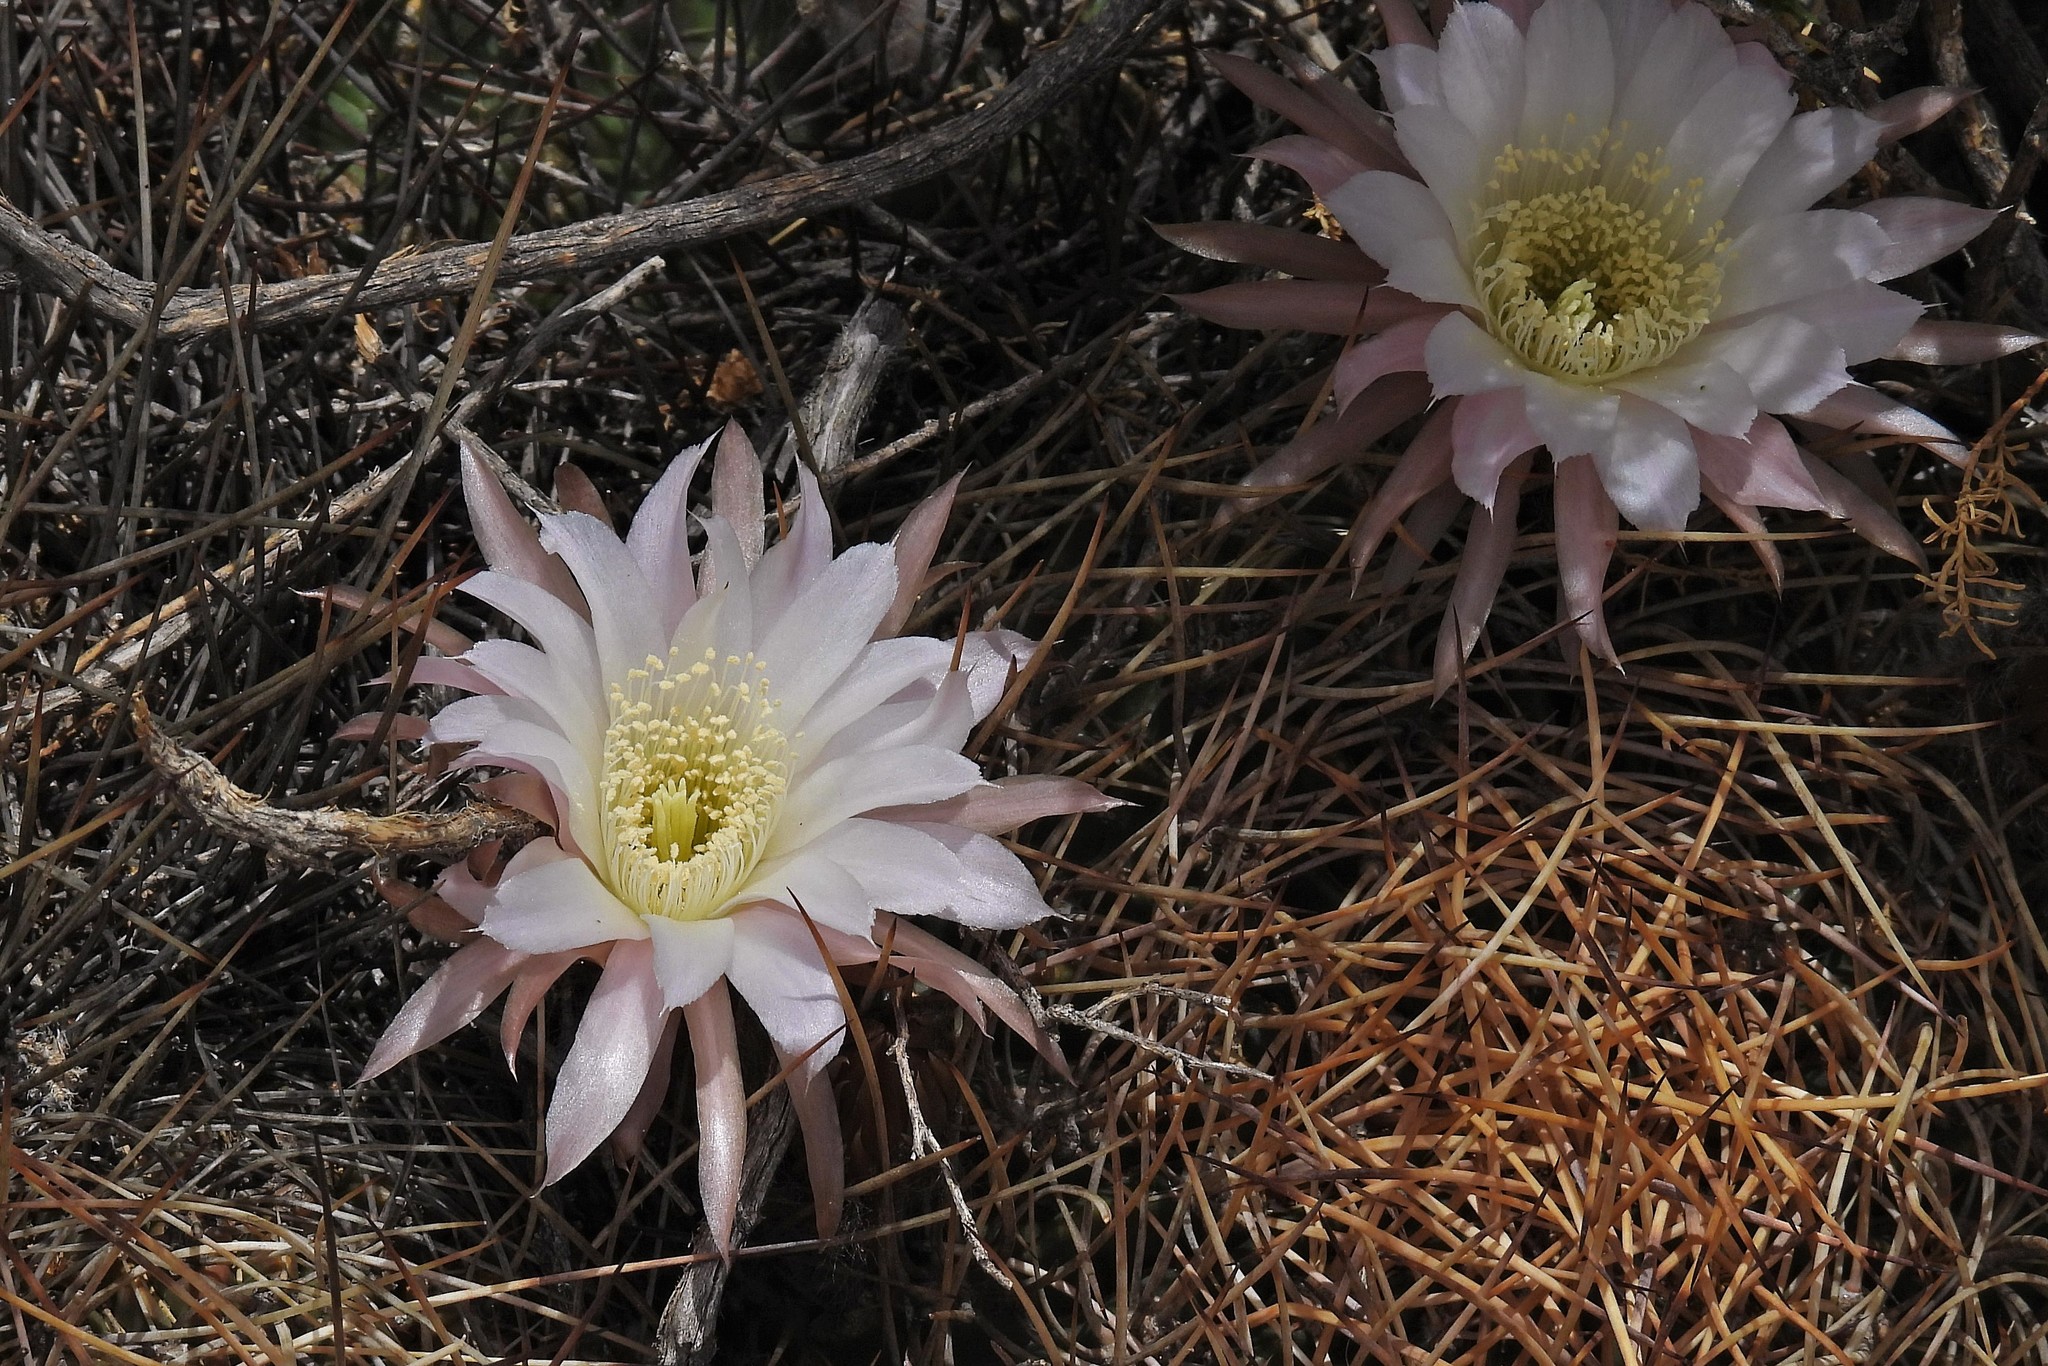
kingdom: Plantae
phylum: Tracheophyta
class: Magnoliopsida
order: Caryophyllales
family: Cactaceae
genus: Lobivia
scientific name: Lobivia ferox
